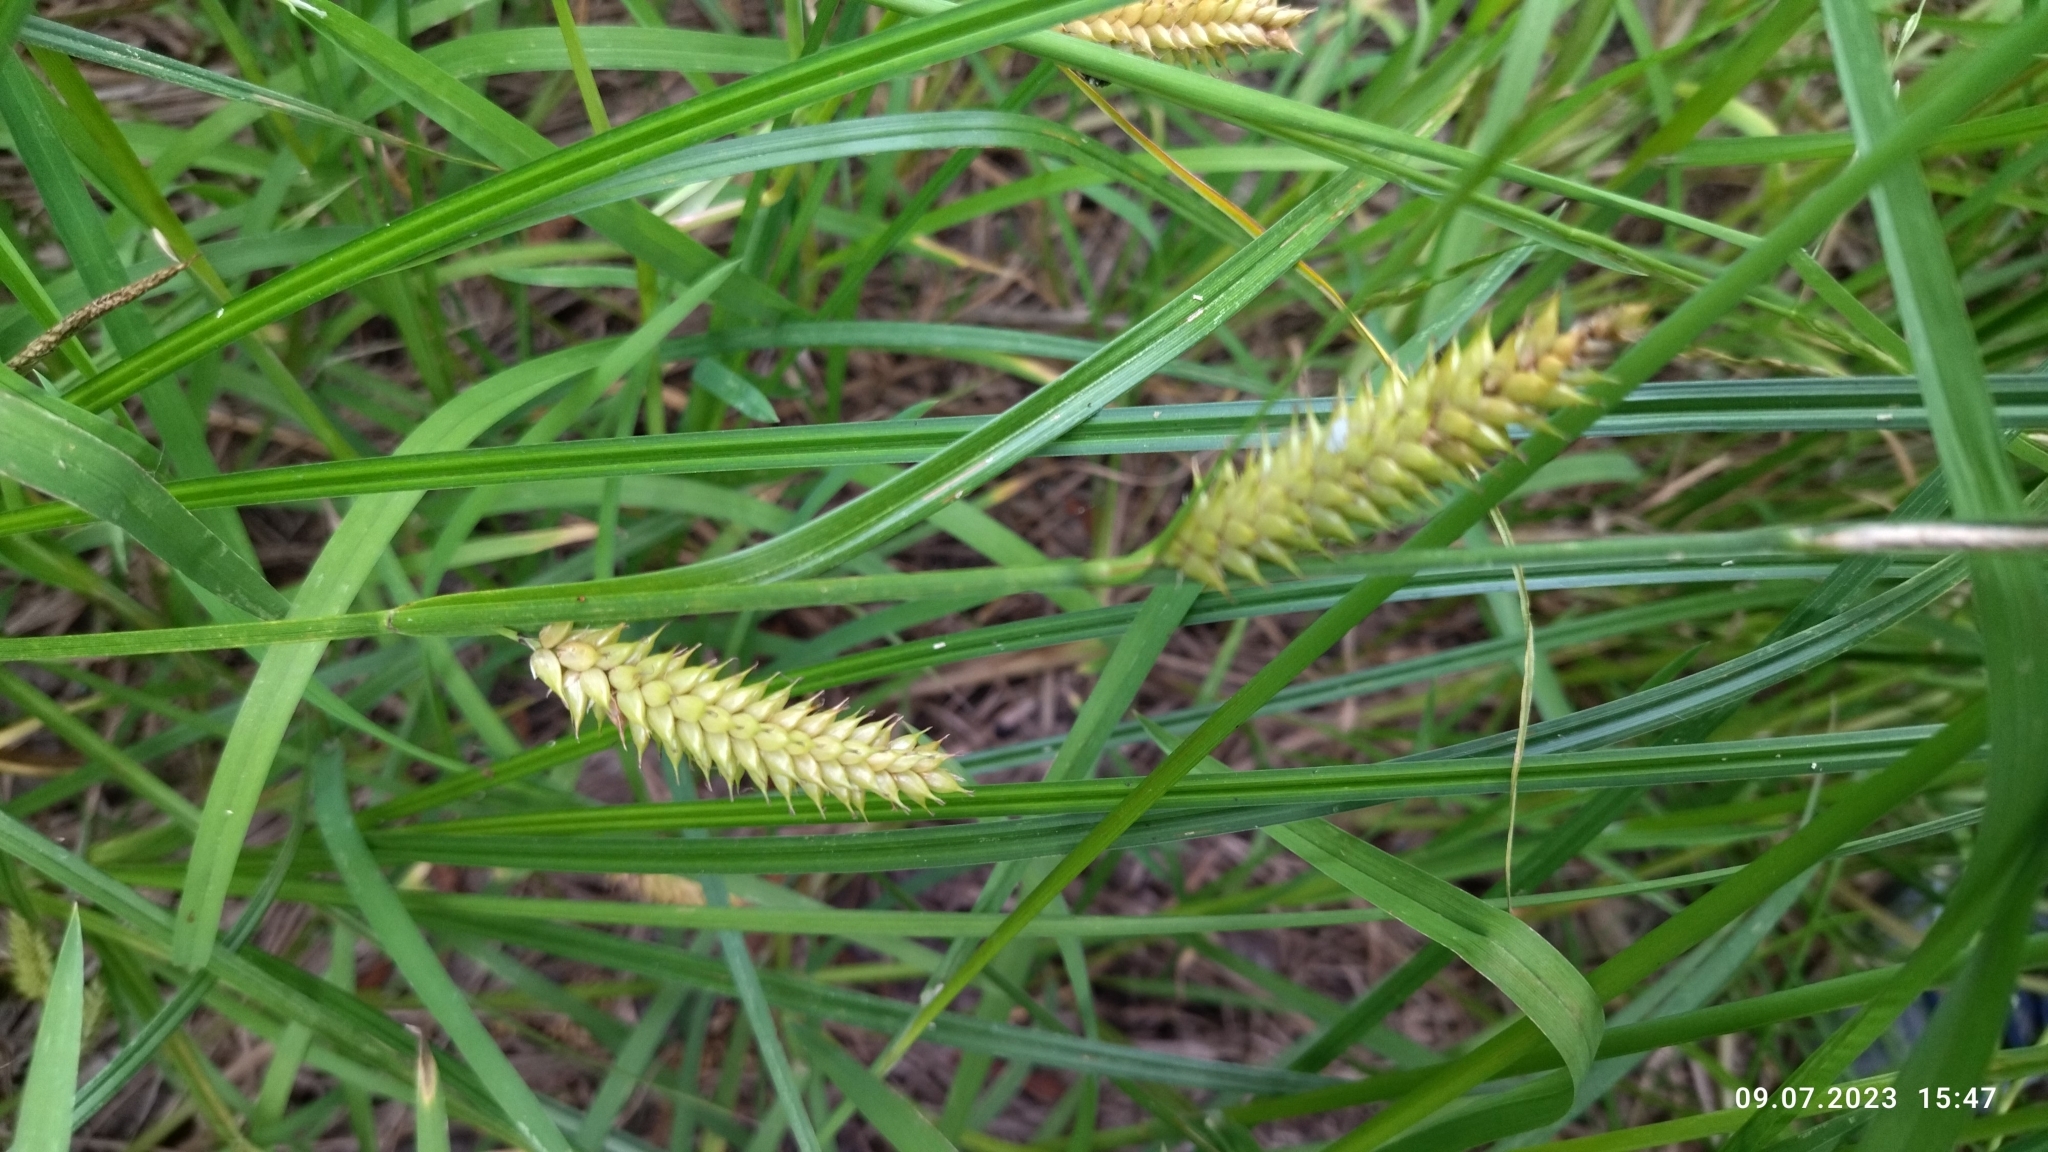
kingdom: Plantae
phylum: Tracheophyta
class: Liliopsida
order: Poales
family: Cyperaceae
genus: Carex
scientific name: Carex vesicaria
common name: Bladder-sedge
